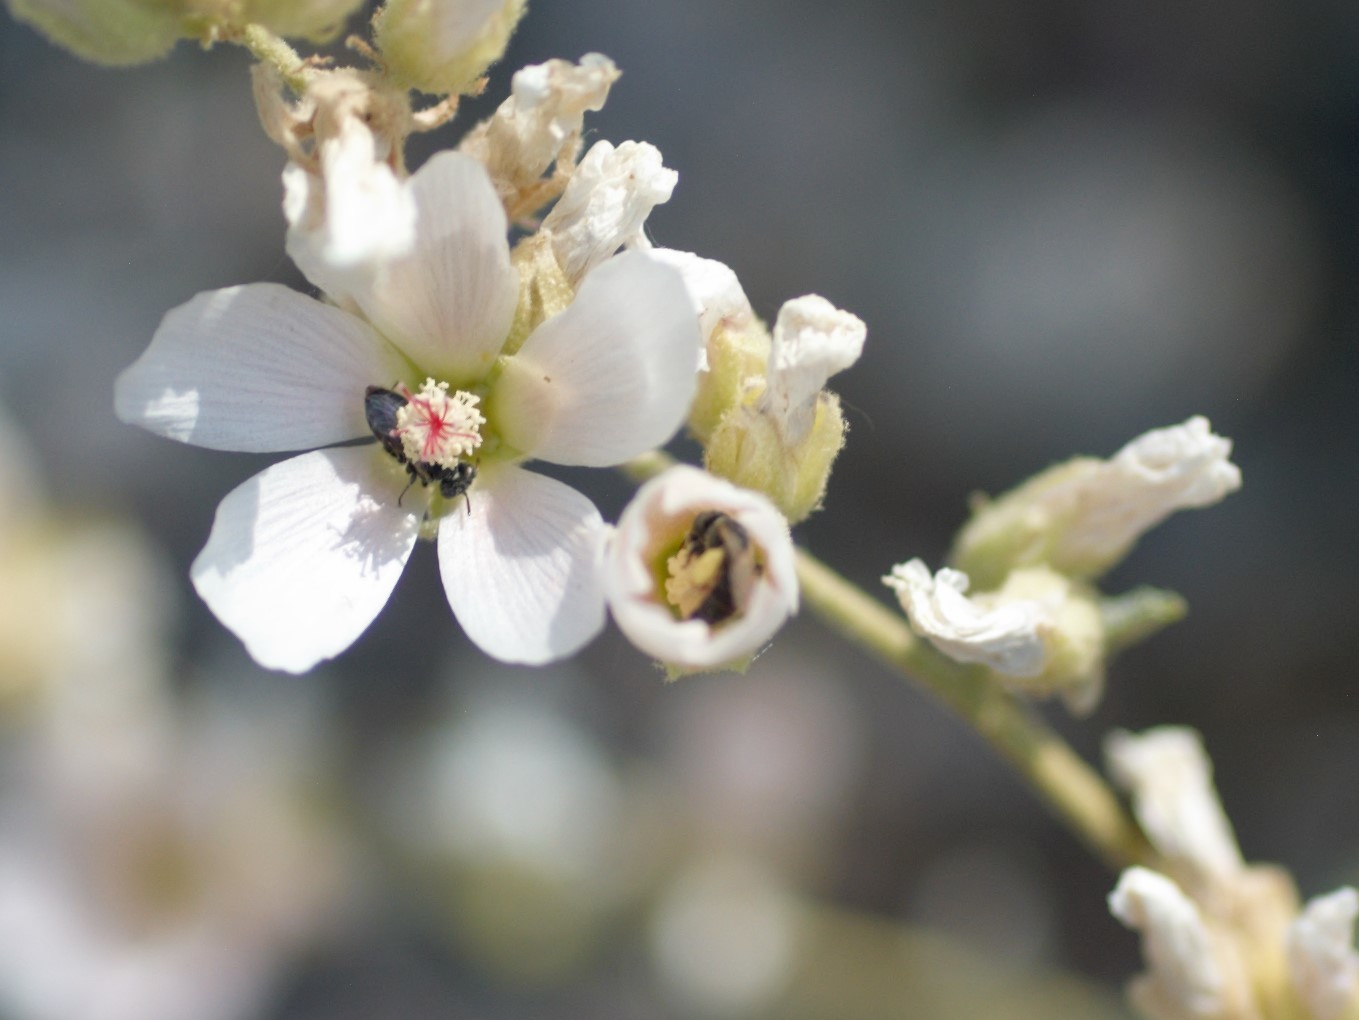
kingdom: Animalia
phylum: Arthropoda
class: Insecta
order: Hymenoptera
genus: Macroteropsis
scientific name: Macroteropsis
